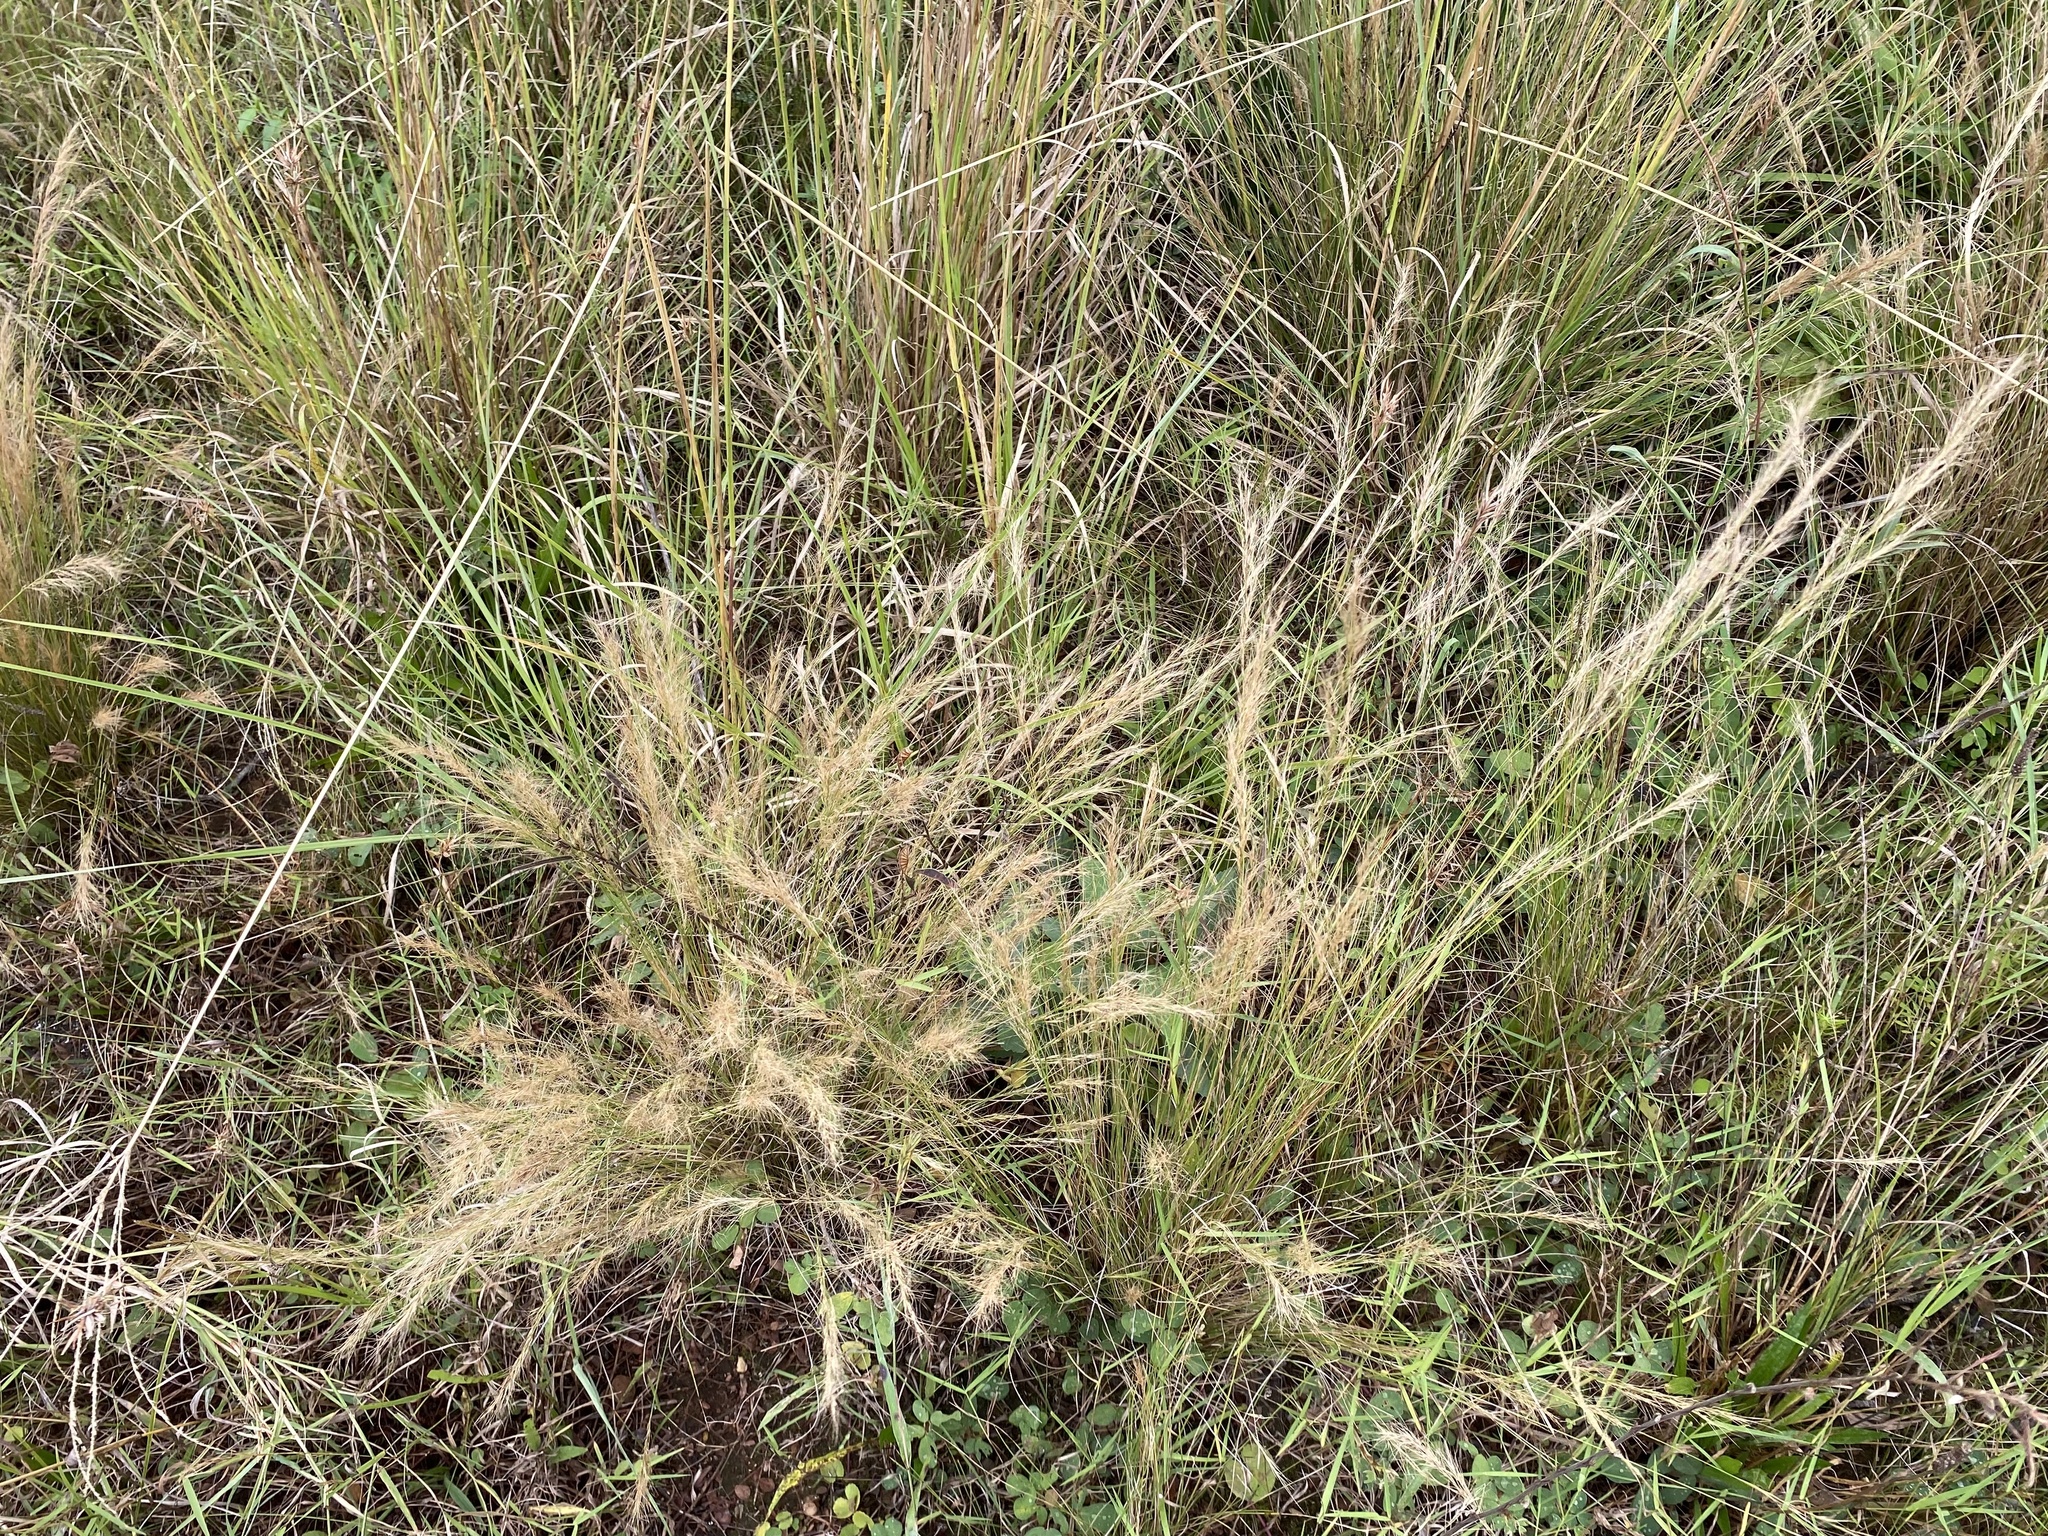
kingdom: Plantae
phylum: Tracheophyta
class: Liliopsida
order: Poales
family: Poaceae
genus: Aristida
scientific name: Aristida junciformis
